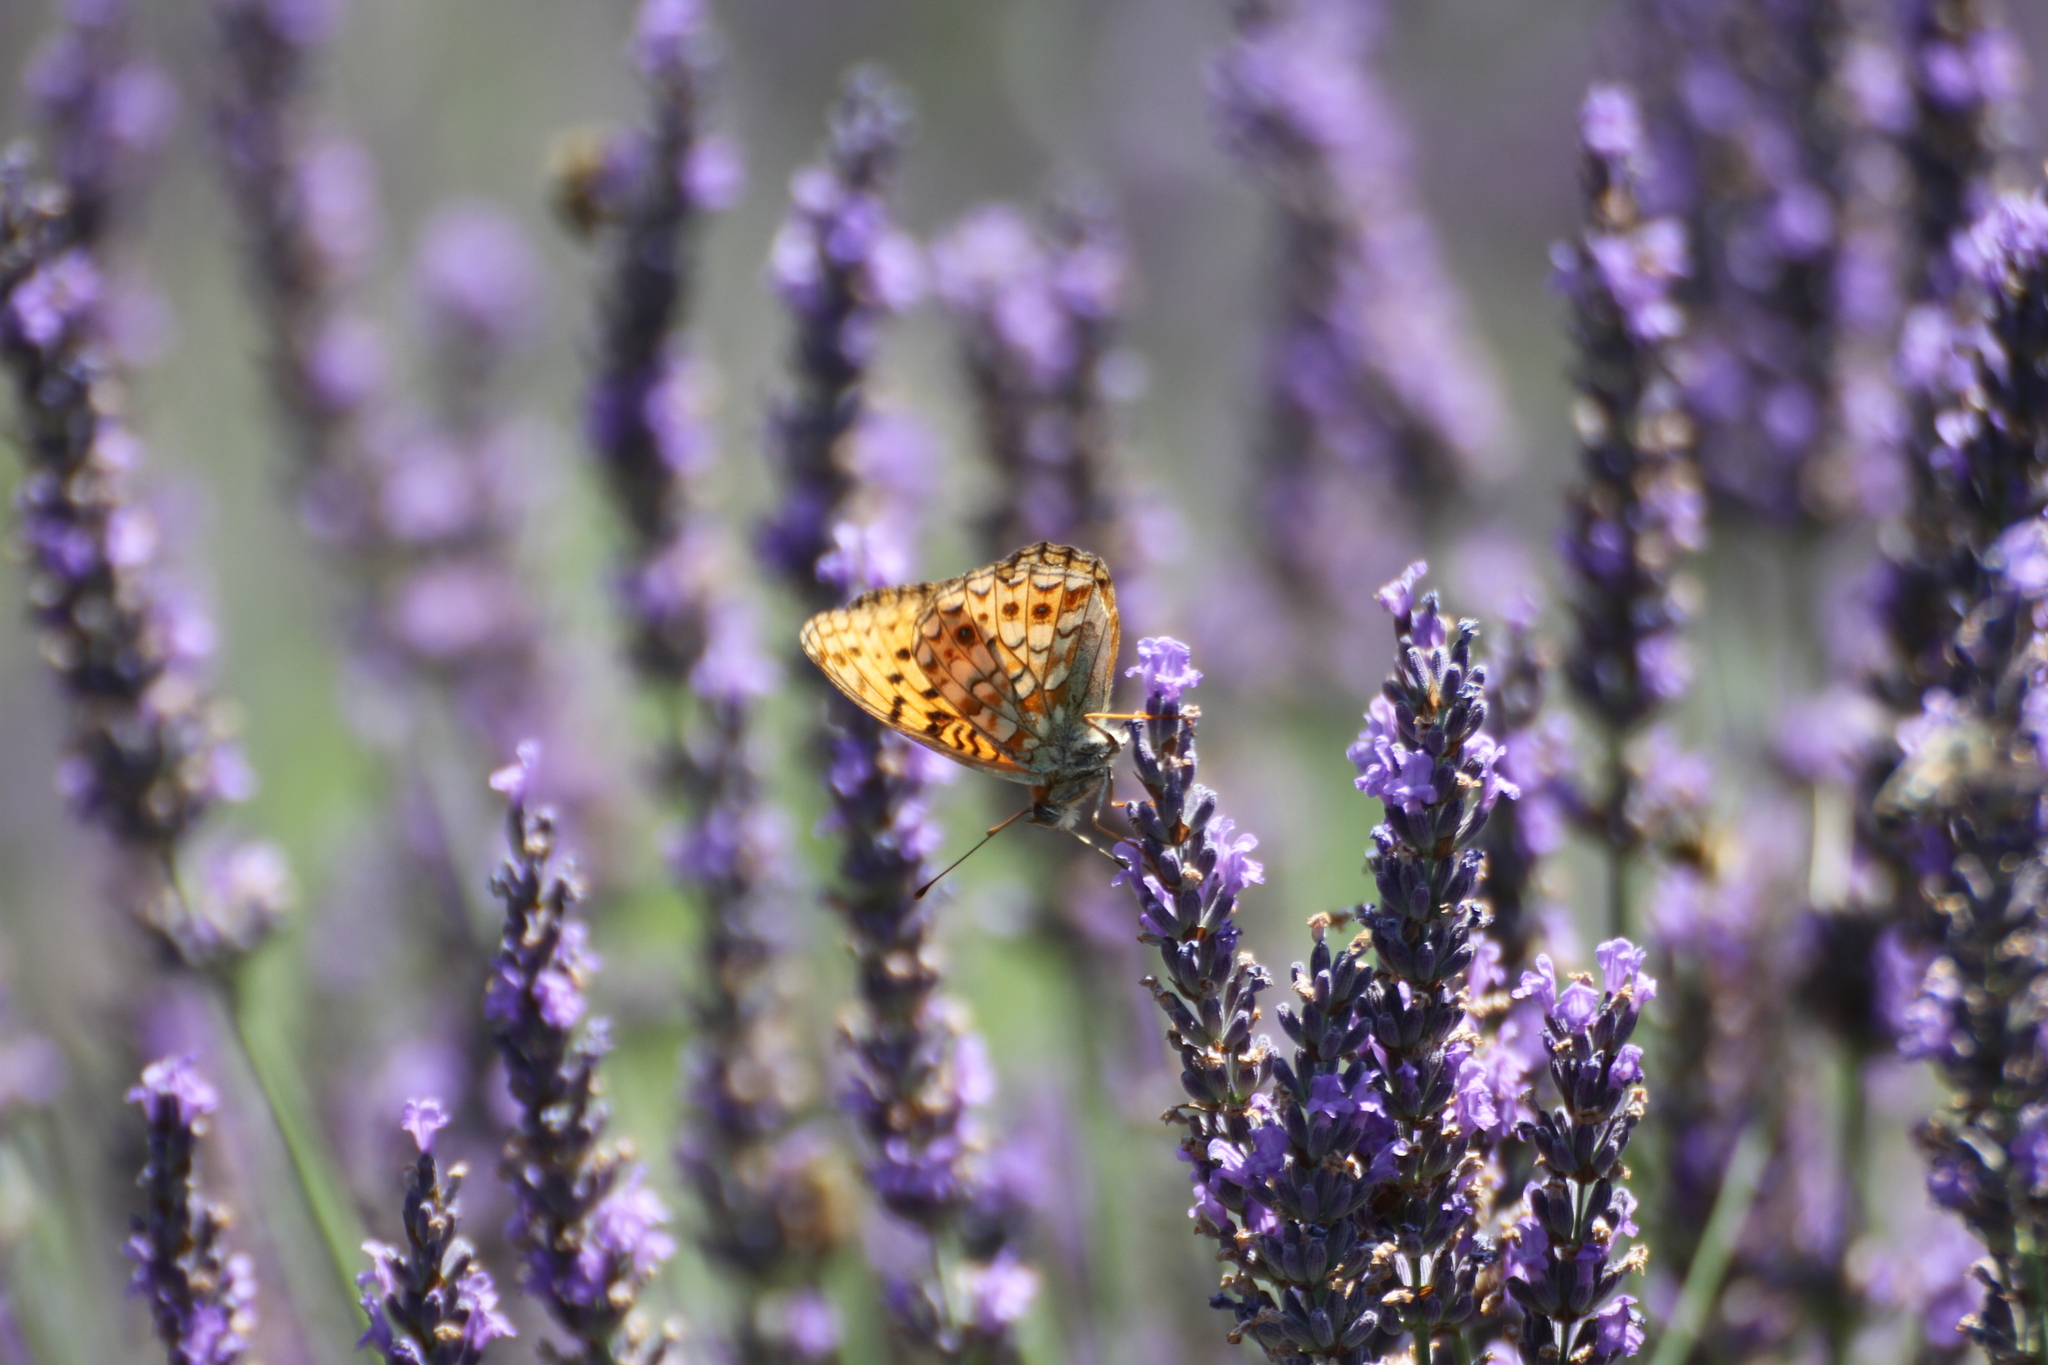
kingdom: Animalia
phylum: Arthropoda
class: Insecta
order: Lepidoptera
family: Nymphalidae
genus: Fabriciana
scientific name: Fabriciana niobe
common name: Niobe fritillary
